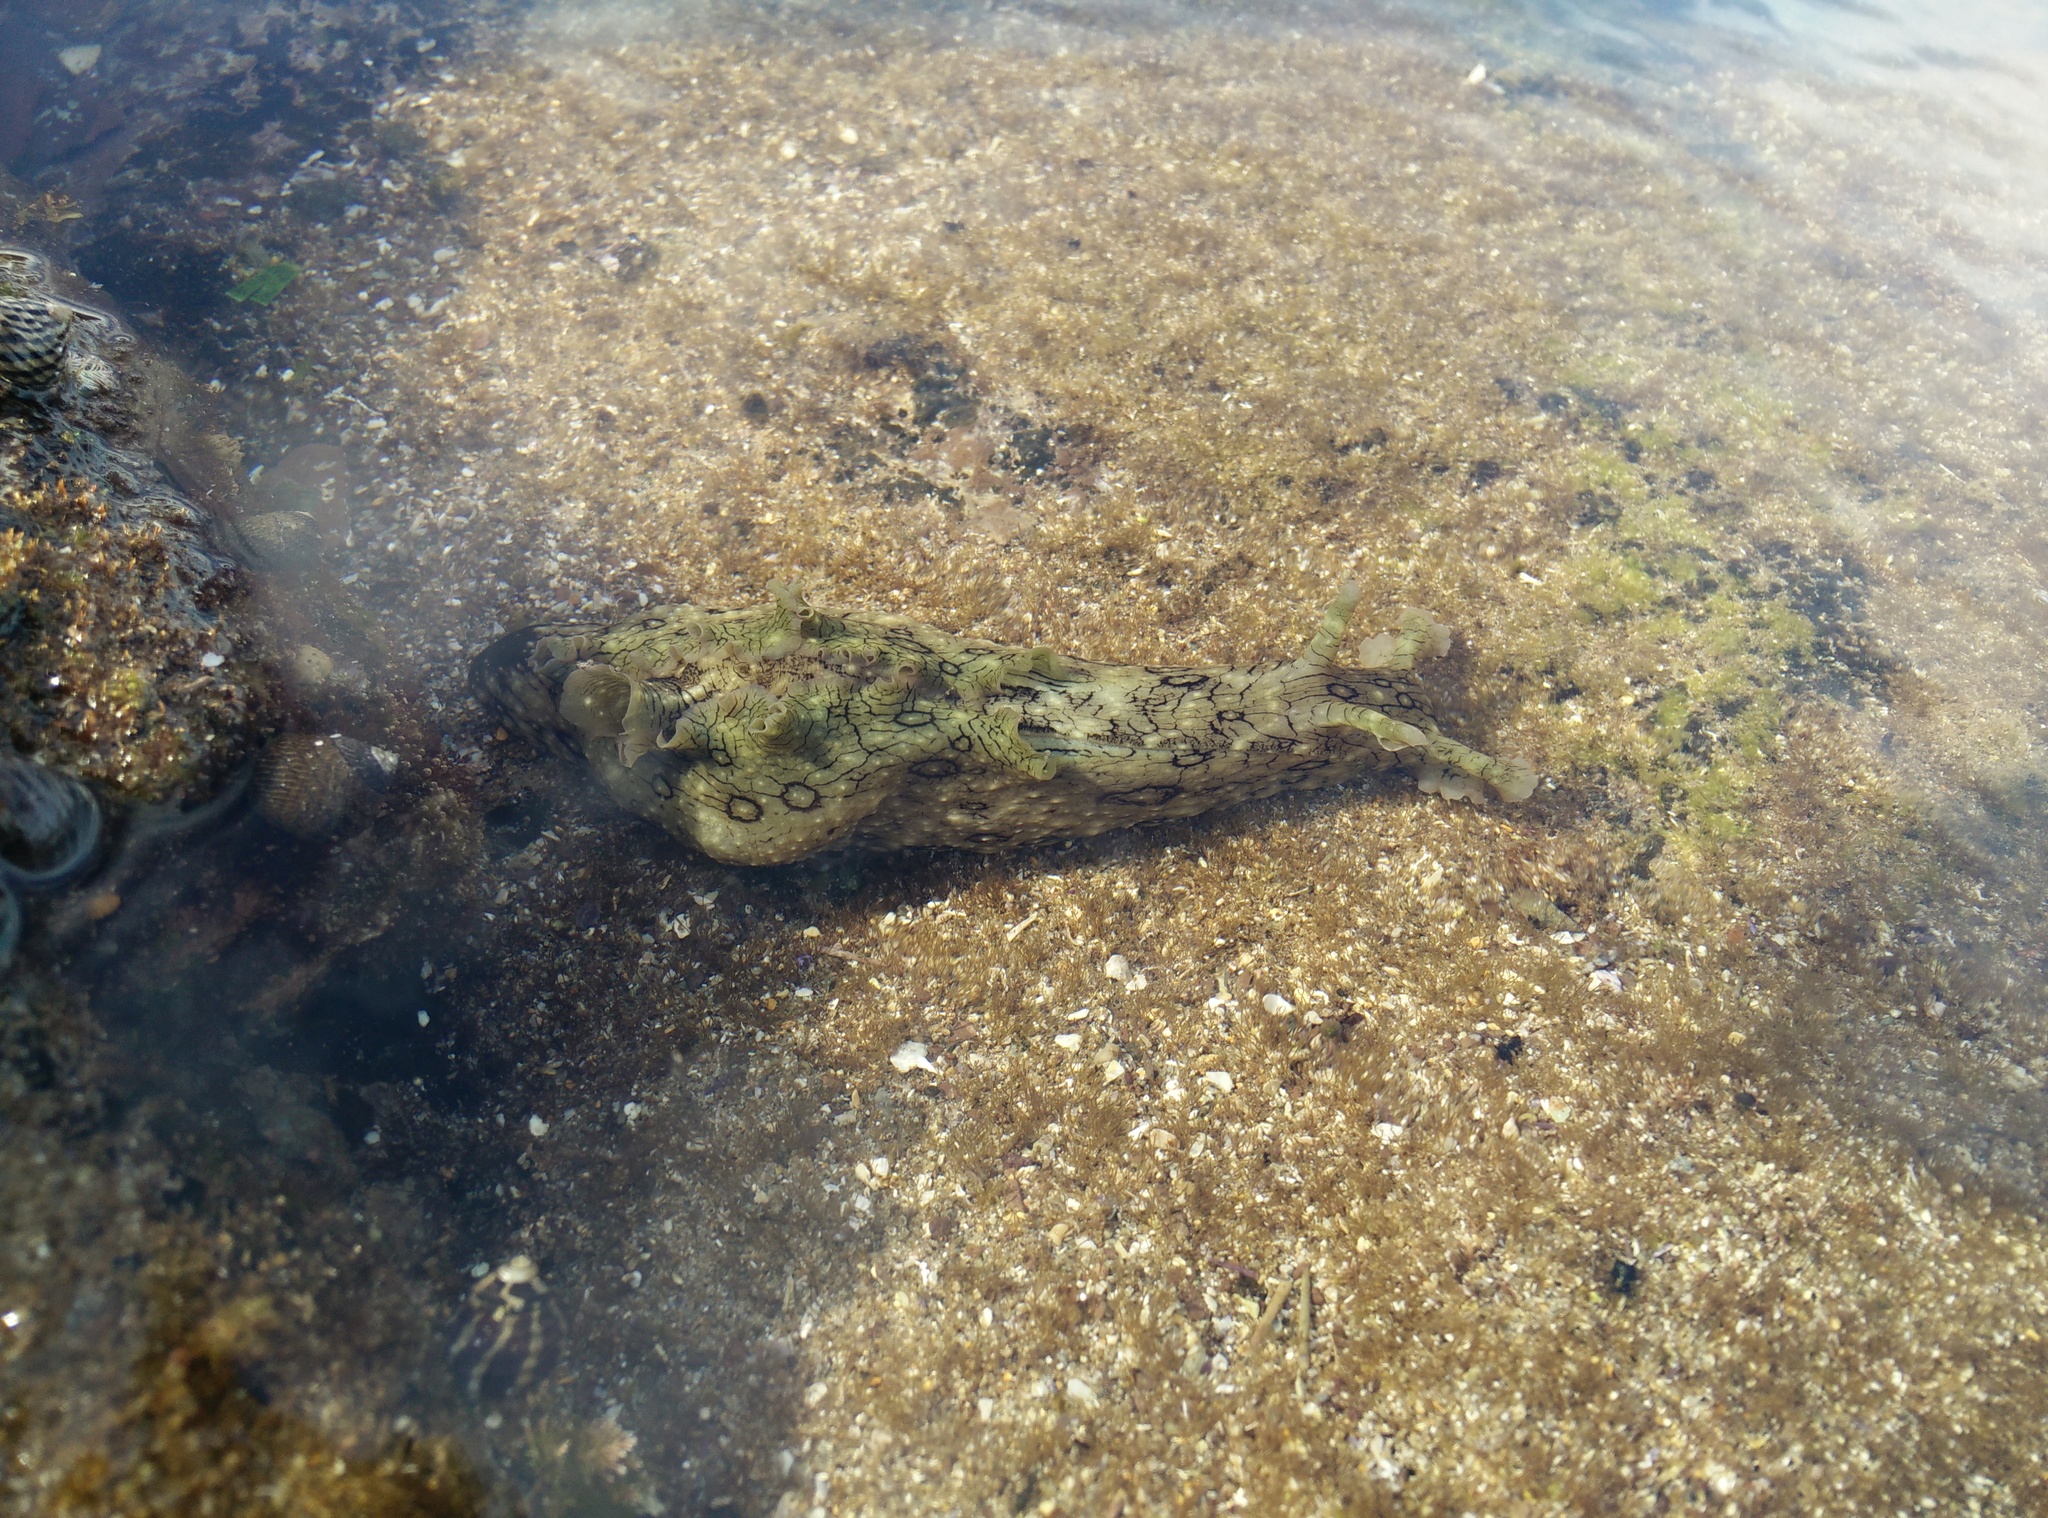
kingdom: Animalia
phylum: Mollusca
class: Gastropoda
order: Aplysiida
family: Aplysiidae
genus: Aplysia
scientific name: Aplysia argus
